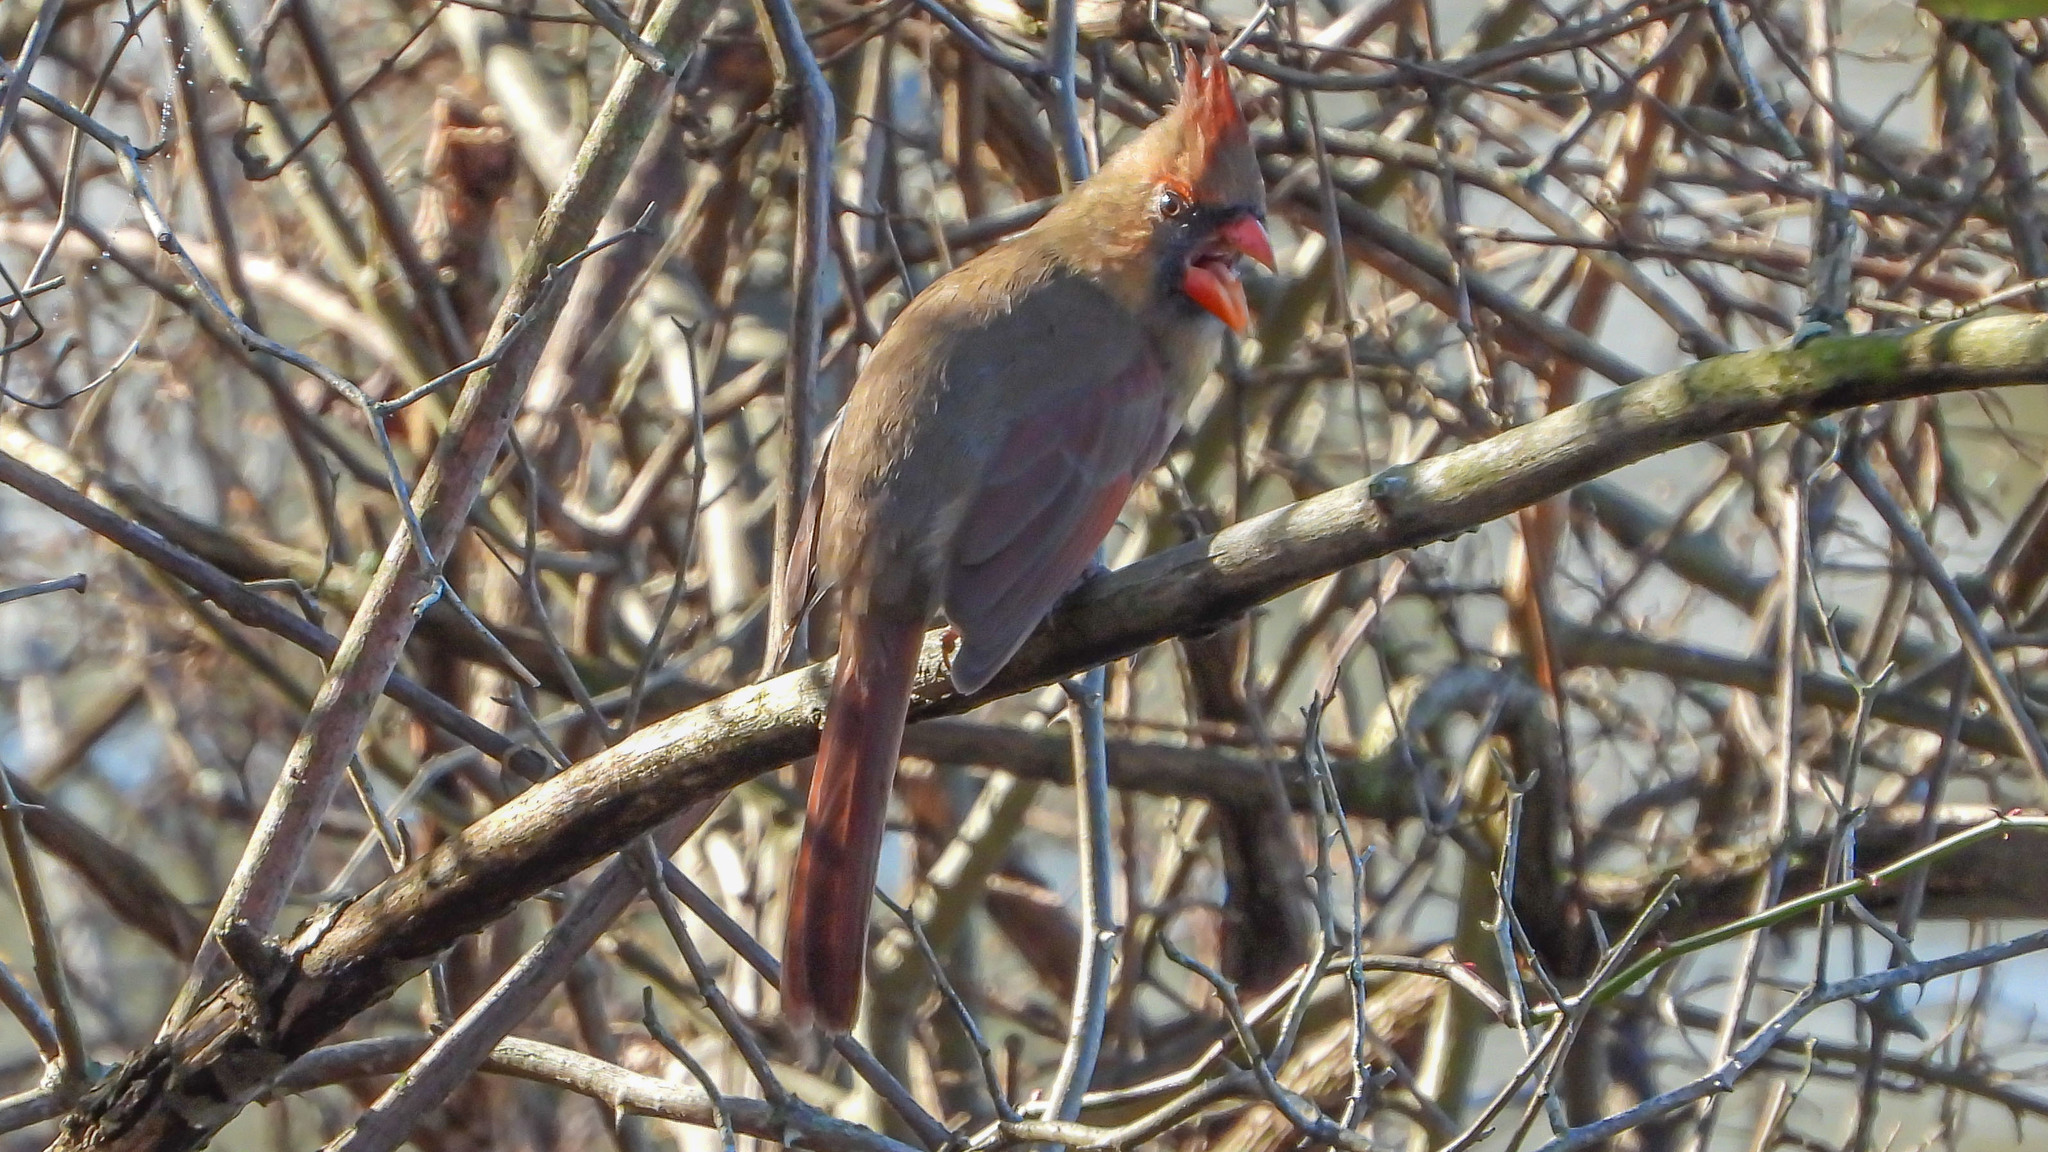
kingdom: Animalia
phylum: Chordata
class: Aves
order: Passeriformes
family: Cardinalidae
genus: Cardinalis
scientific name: Cardinalis cardinalis
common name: Northern cardinal
